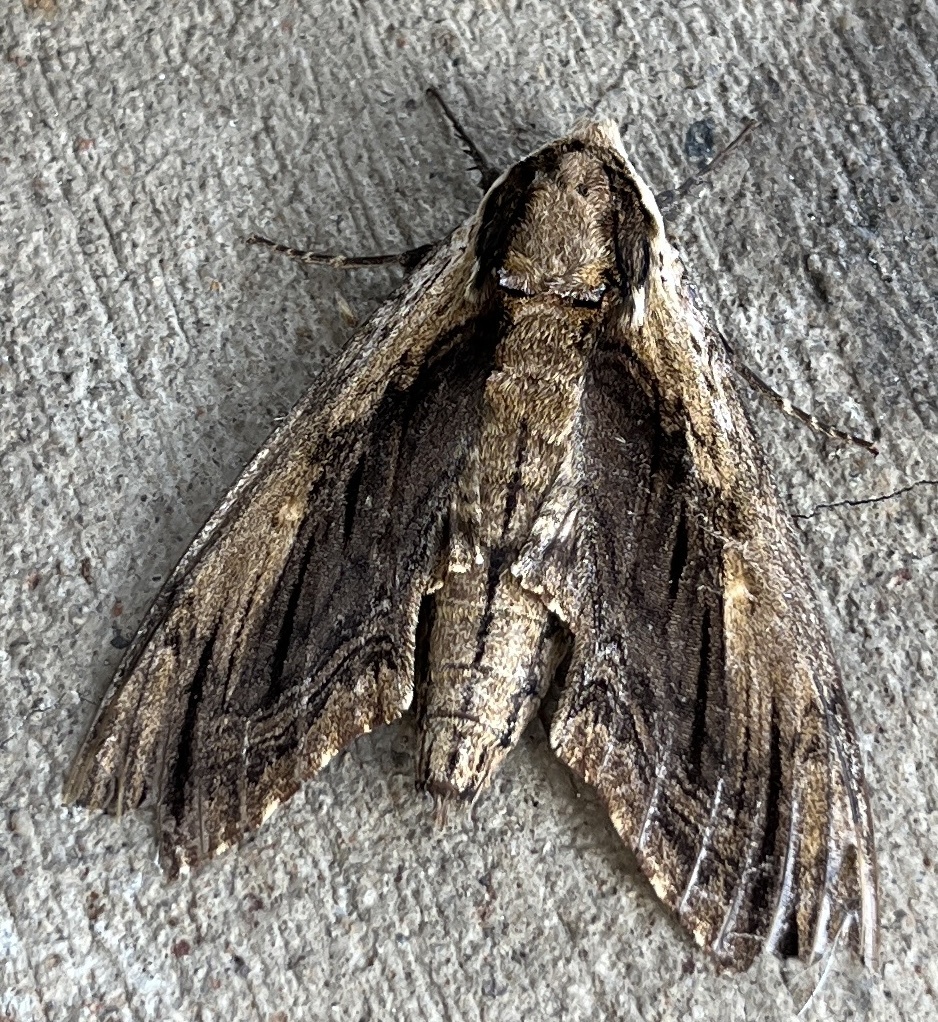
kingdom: Animalia
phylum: Arthropoda
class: Insecta
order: Lepidoptera
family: Sphingidae
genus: Ceratomia
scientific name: Ceratomia amyntor
